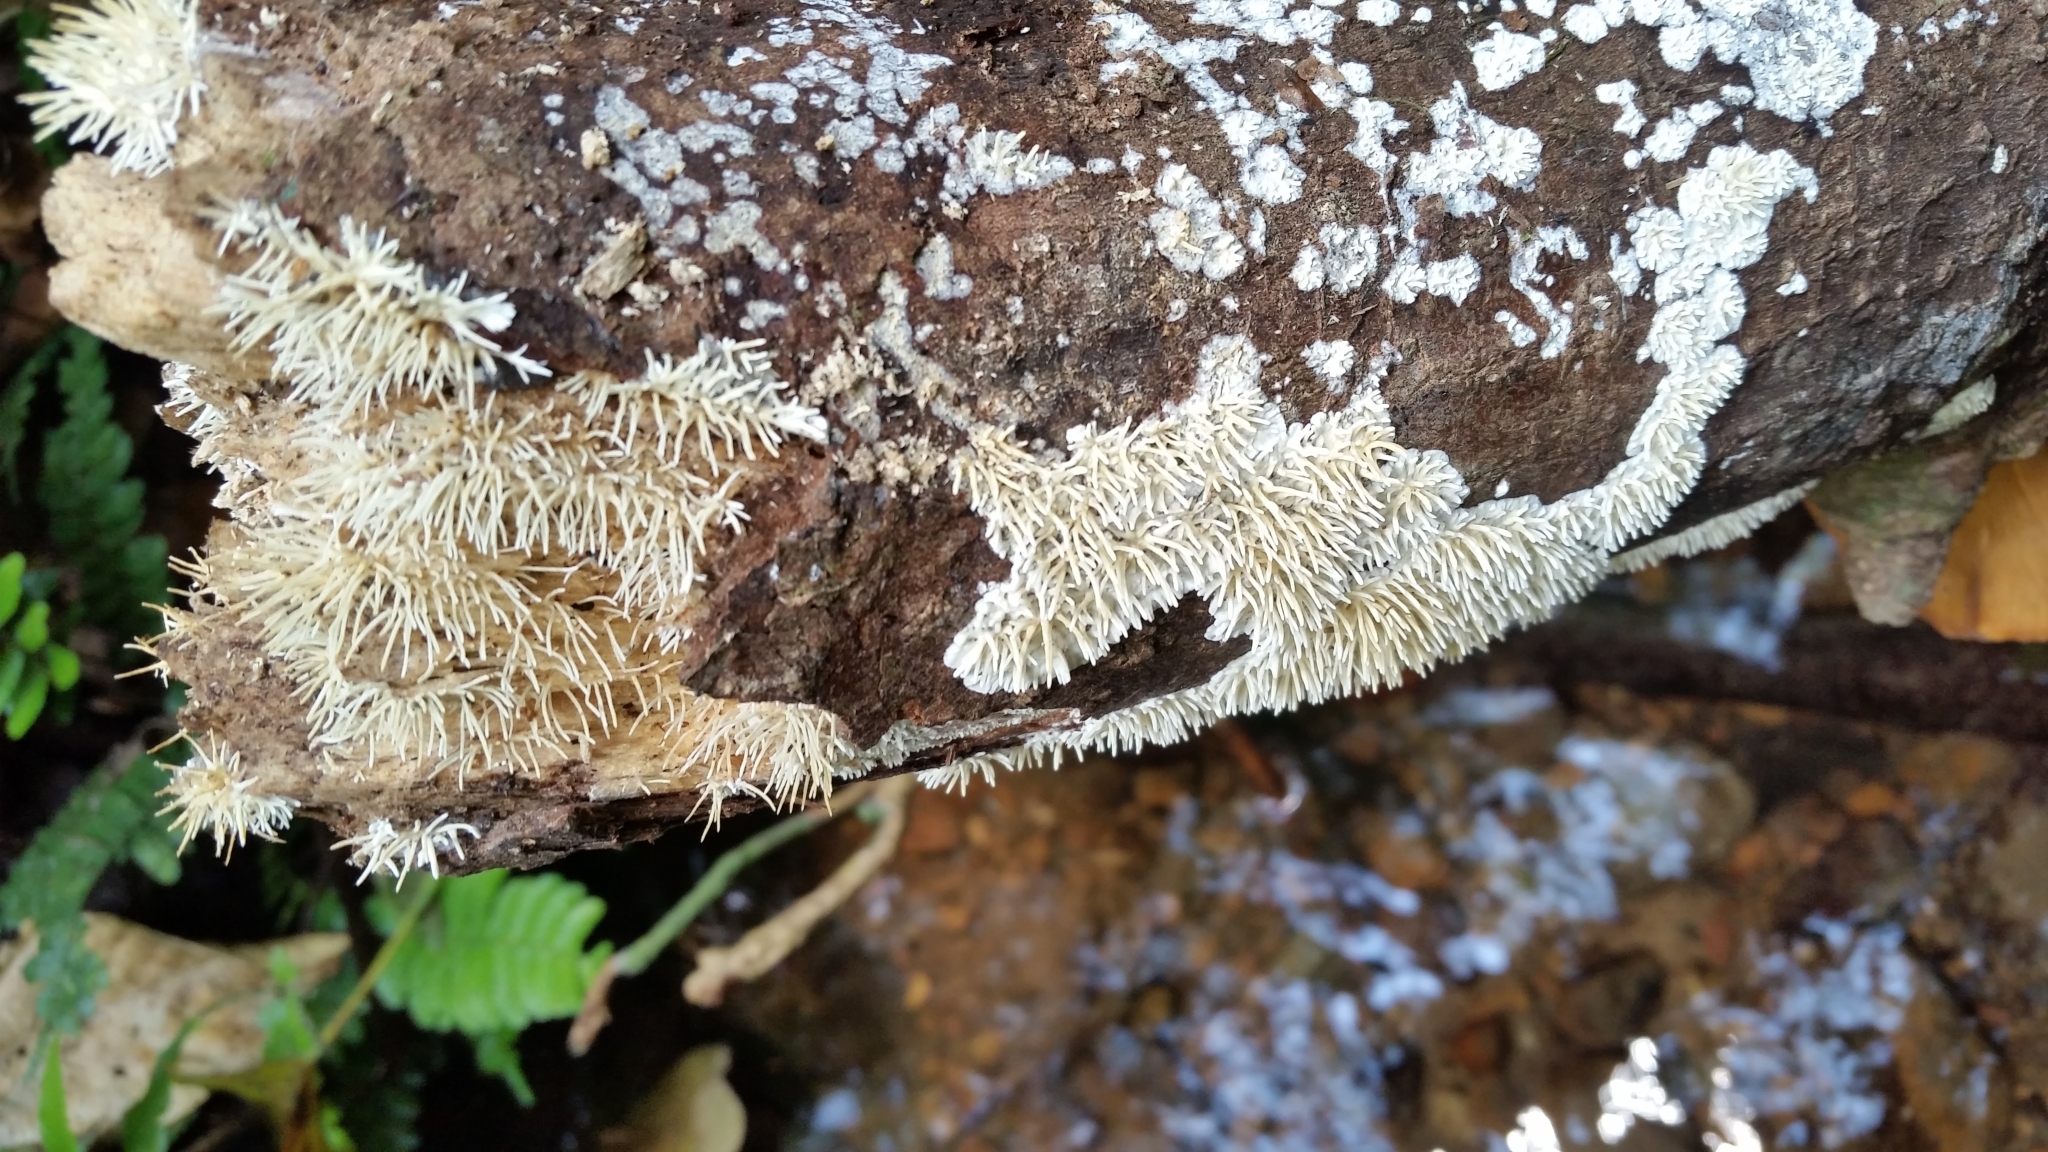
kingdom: Fungi
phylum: Basidiomycota
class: Agaricomycetes
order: Auriculariales
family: Auriculariaceae
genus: Elmerina
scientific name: Elmerina sclerodontia
